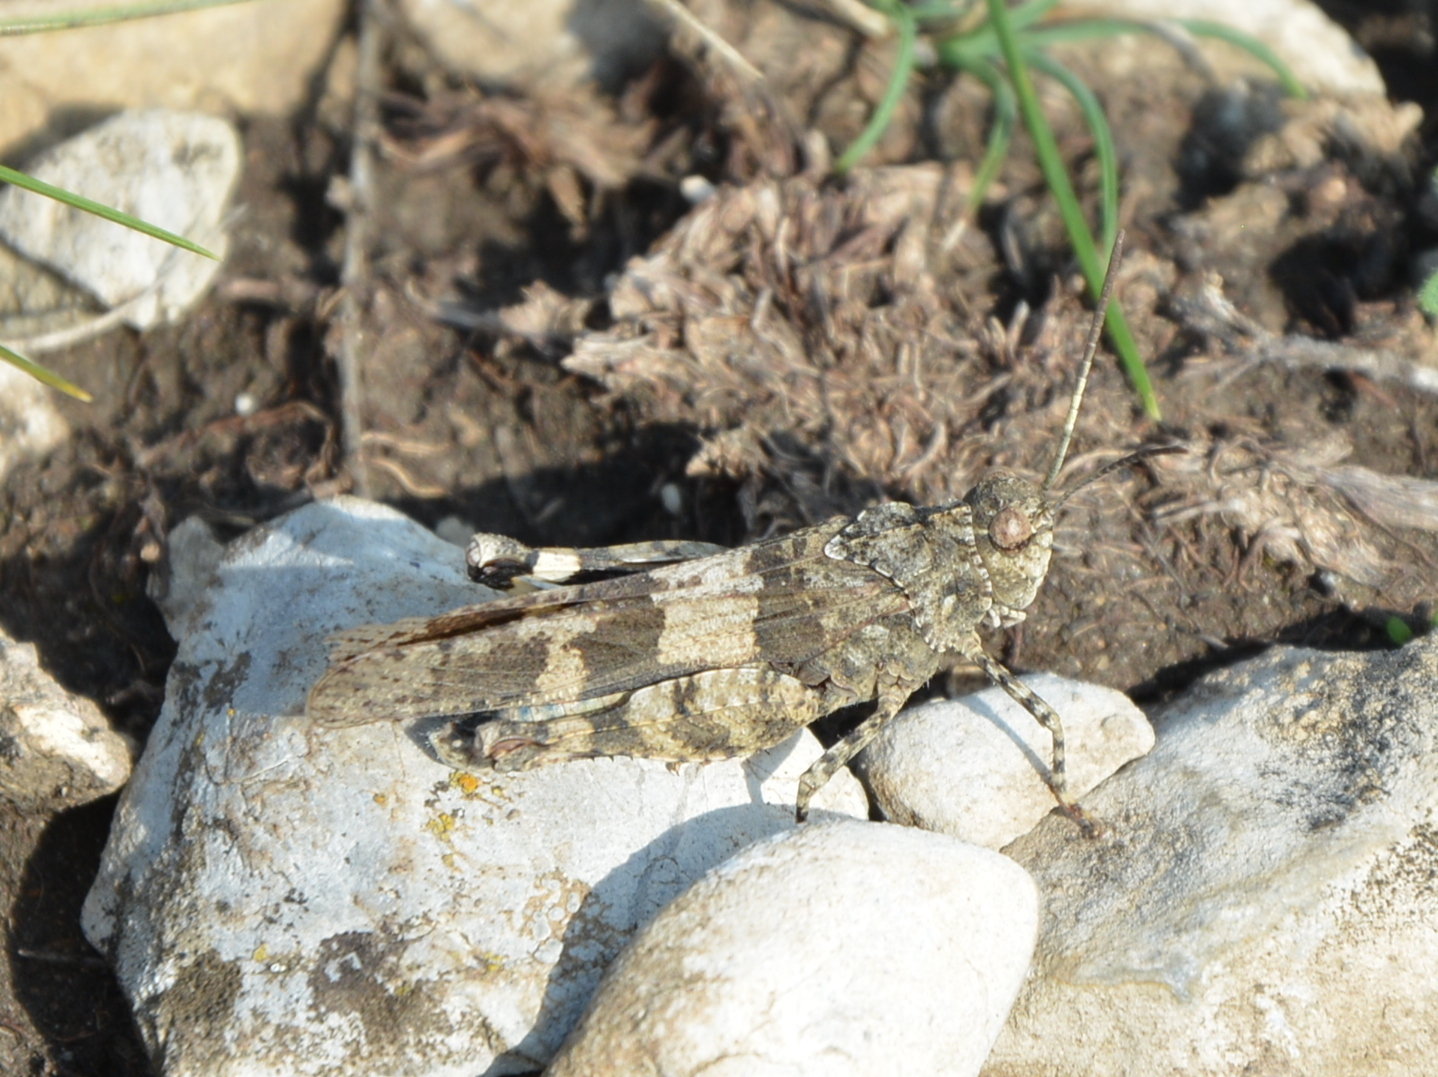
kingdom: Animalia
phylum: Arthropoda
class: Insecta
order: Orthoptera
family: Acrididae
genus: Oedipoda
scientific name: Oedipoda caerulescens
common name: Blue-winged grasshopper
